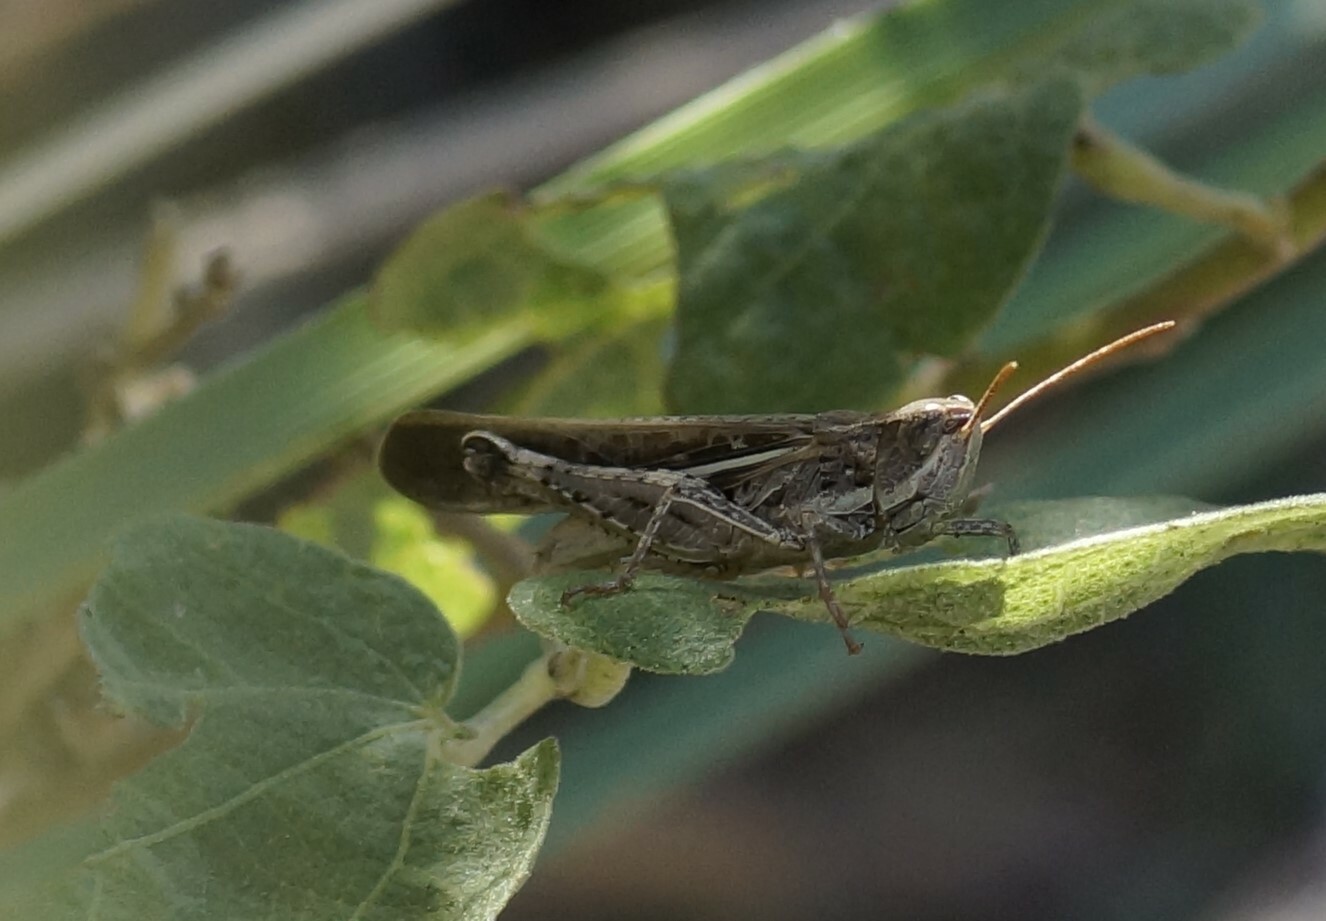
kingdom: Animalia
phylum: Arthropoda
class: Insecta
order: Orthoptera
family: Acrididae
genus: Aiolopus
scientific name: Aiolopus thalassinus
